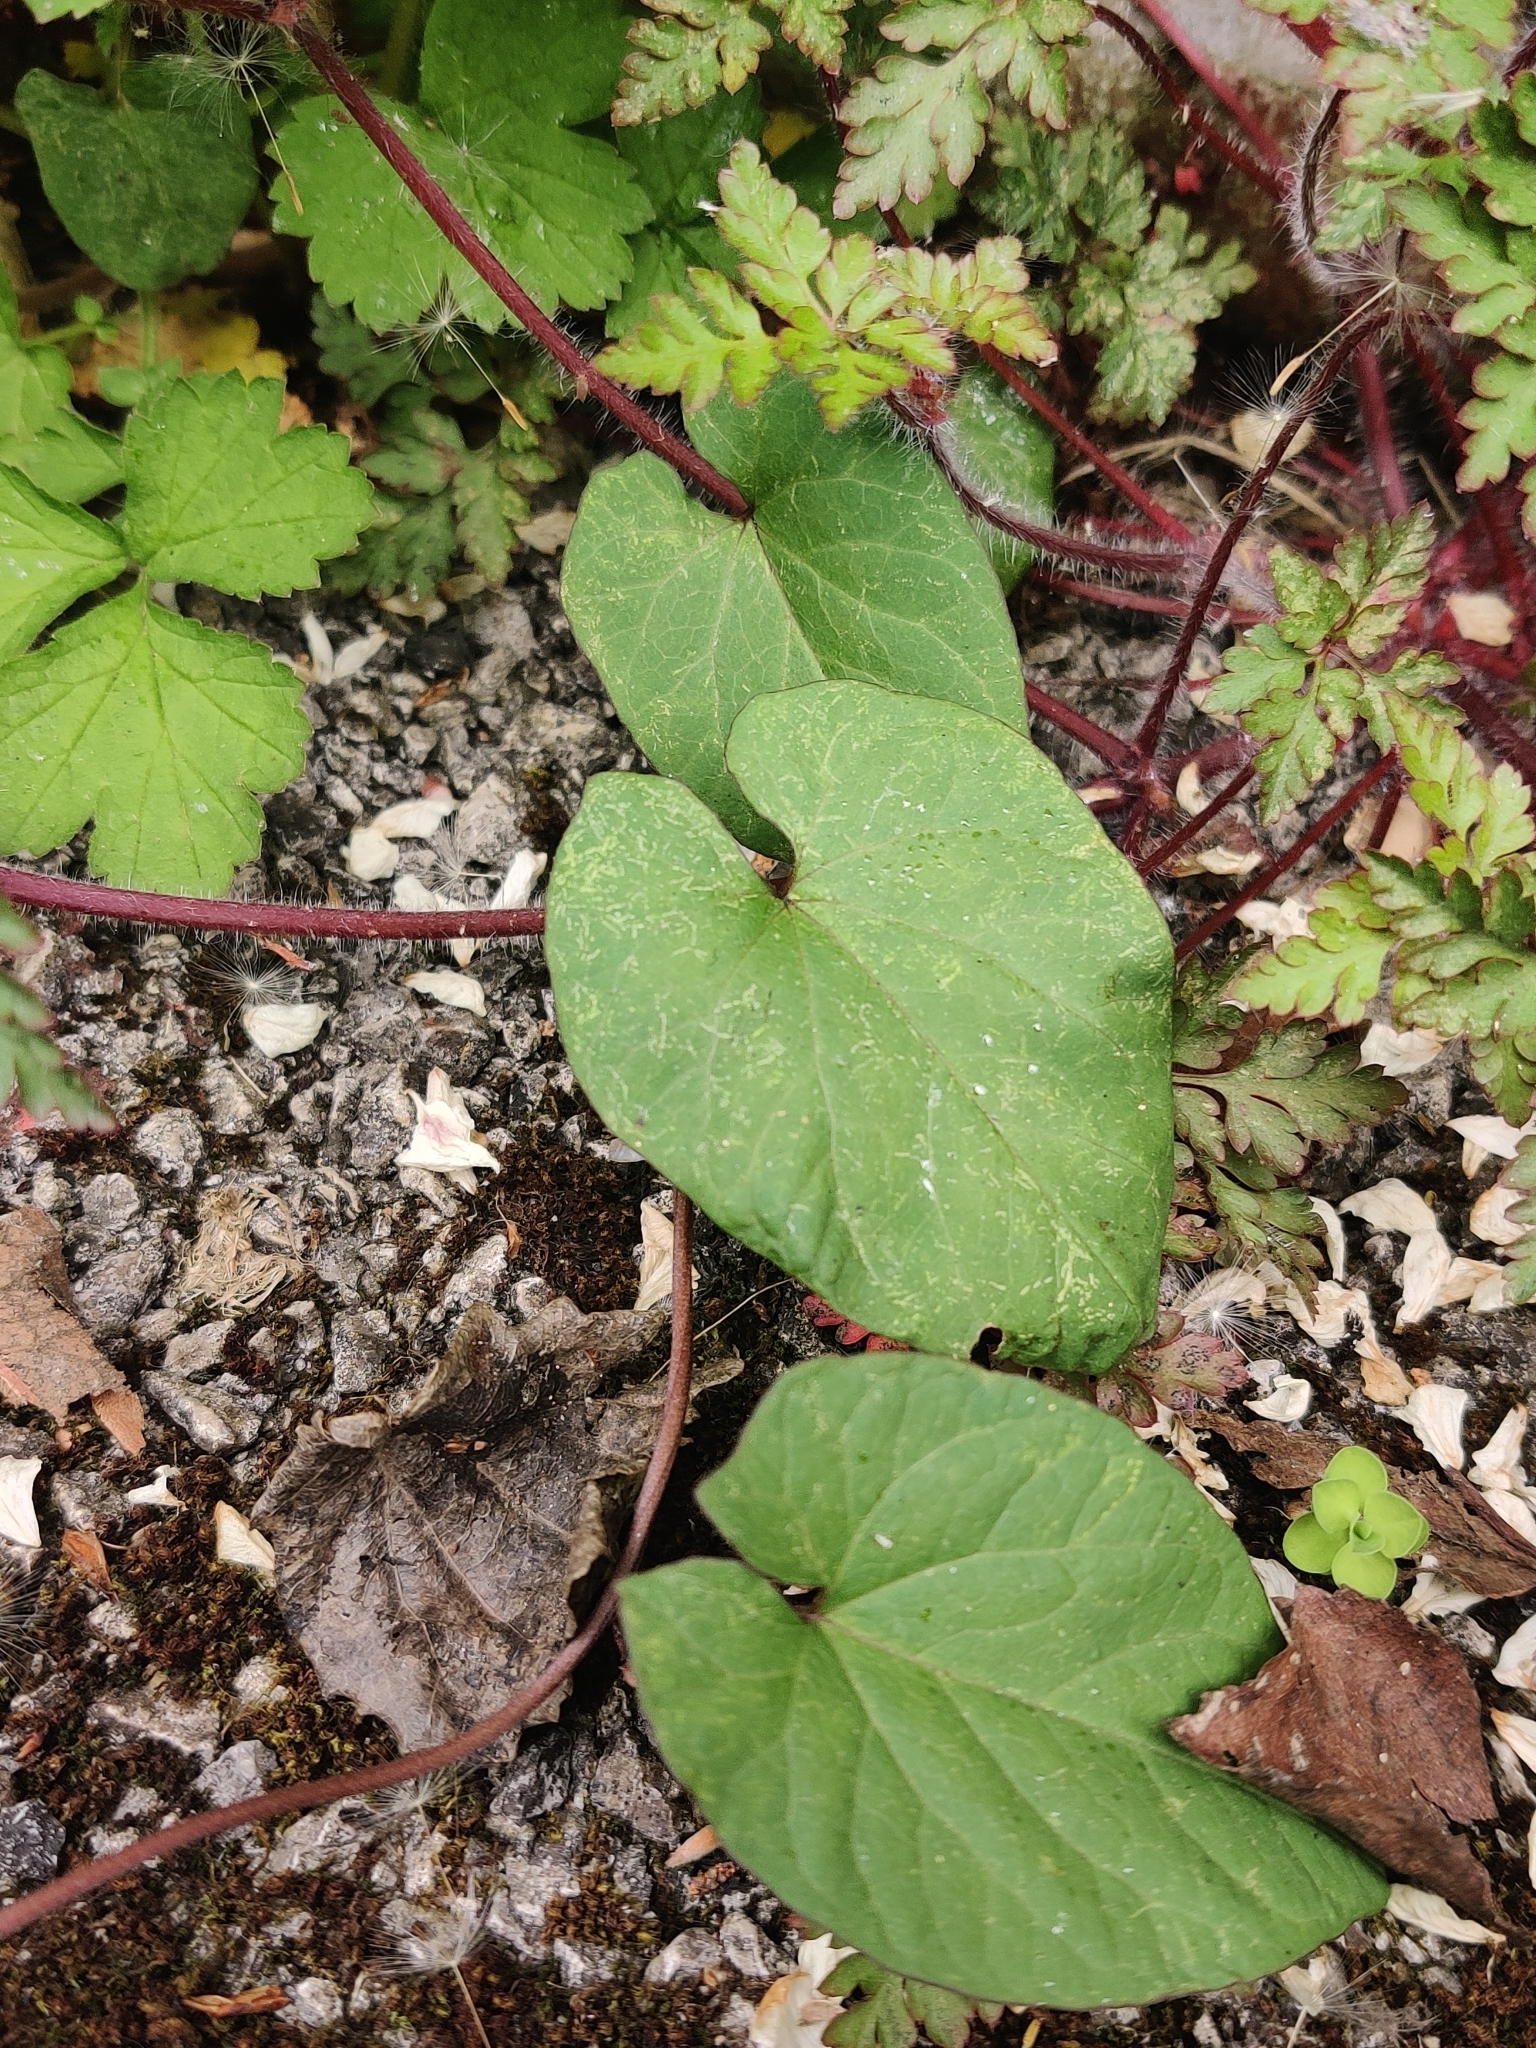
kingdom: Plantae
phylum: Tracheophyta
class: Magnoliopsida
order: Solanales
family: Convolvulaceae
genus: Calystegia
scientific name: Calystegia
